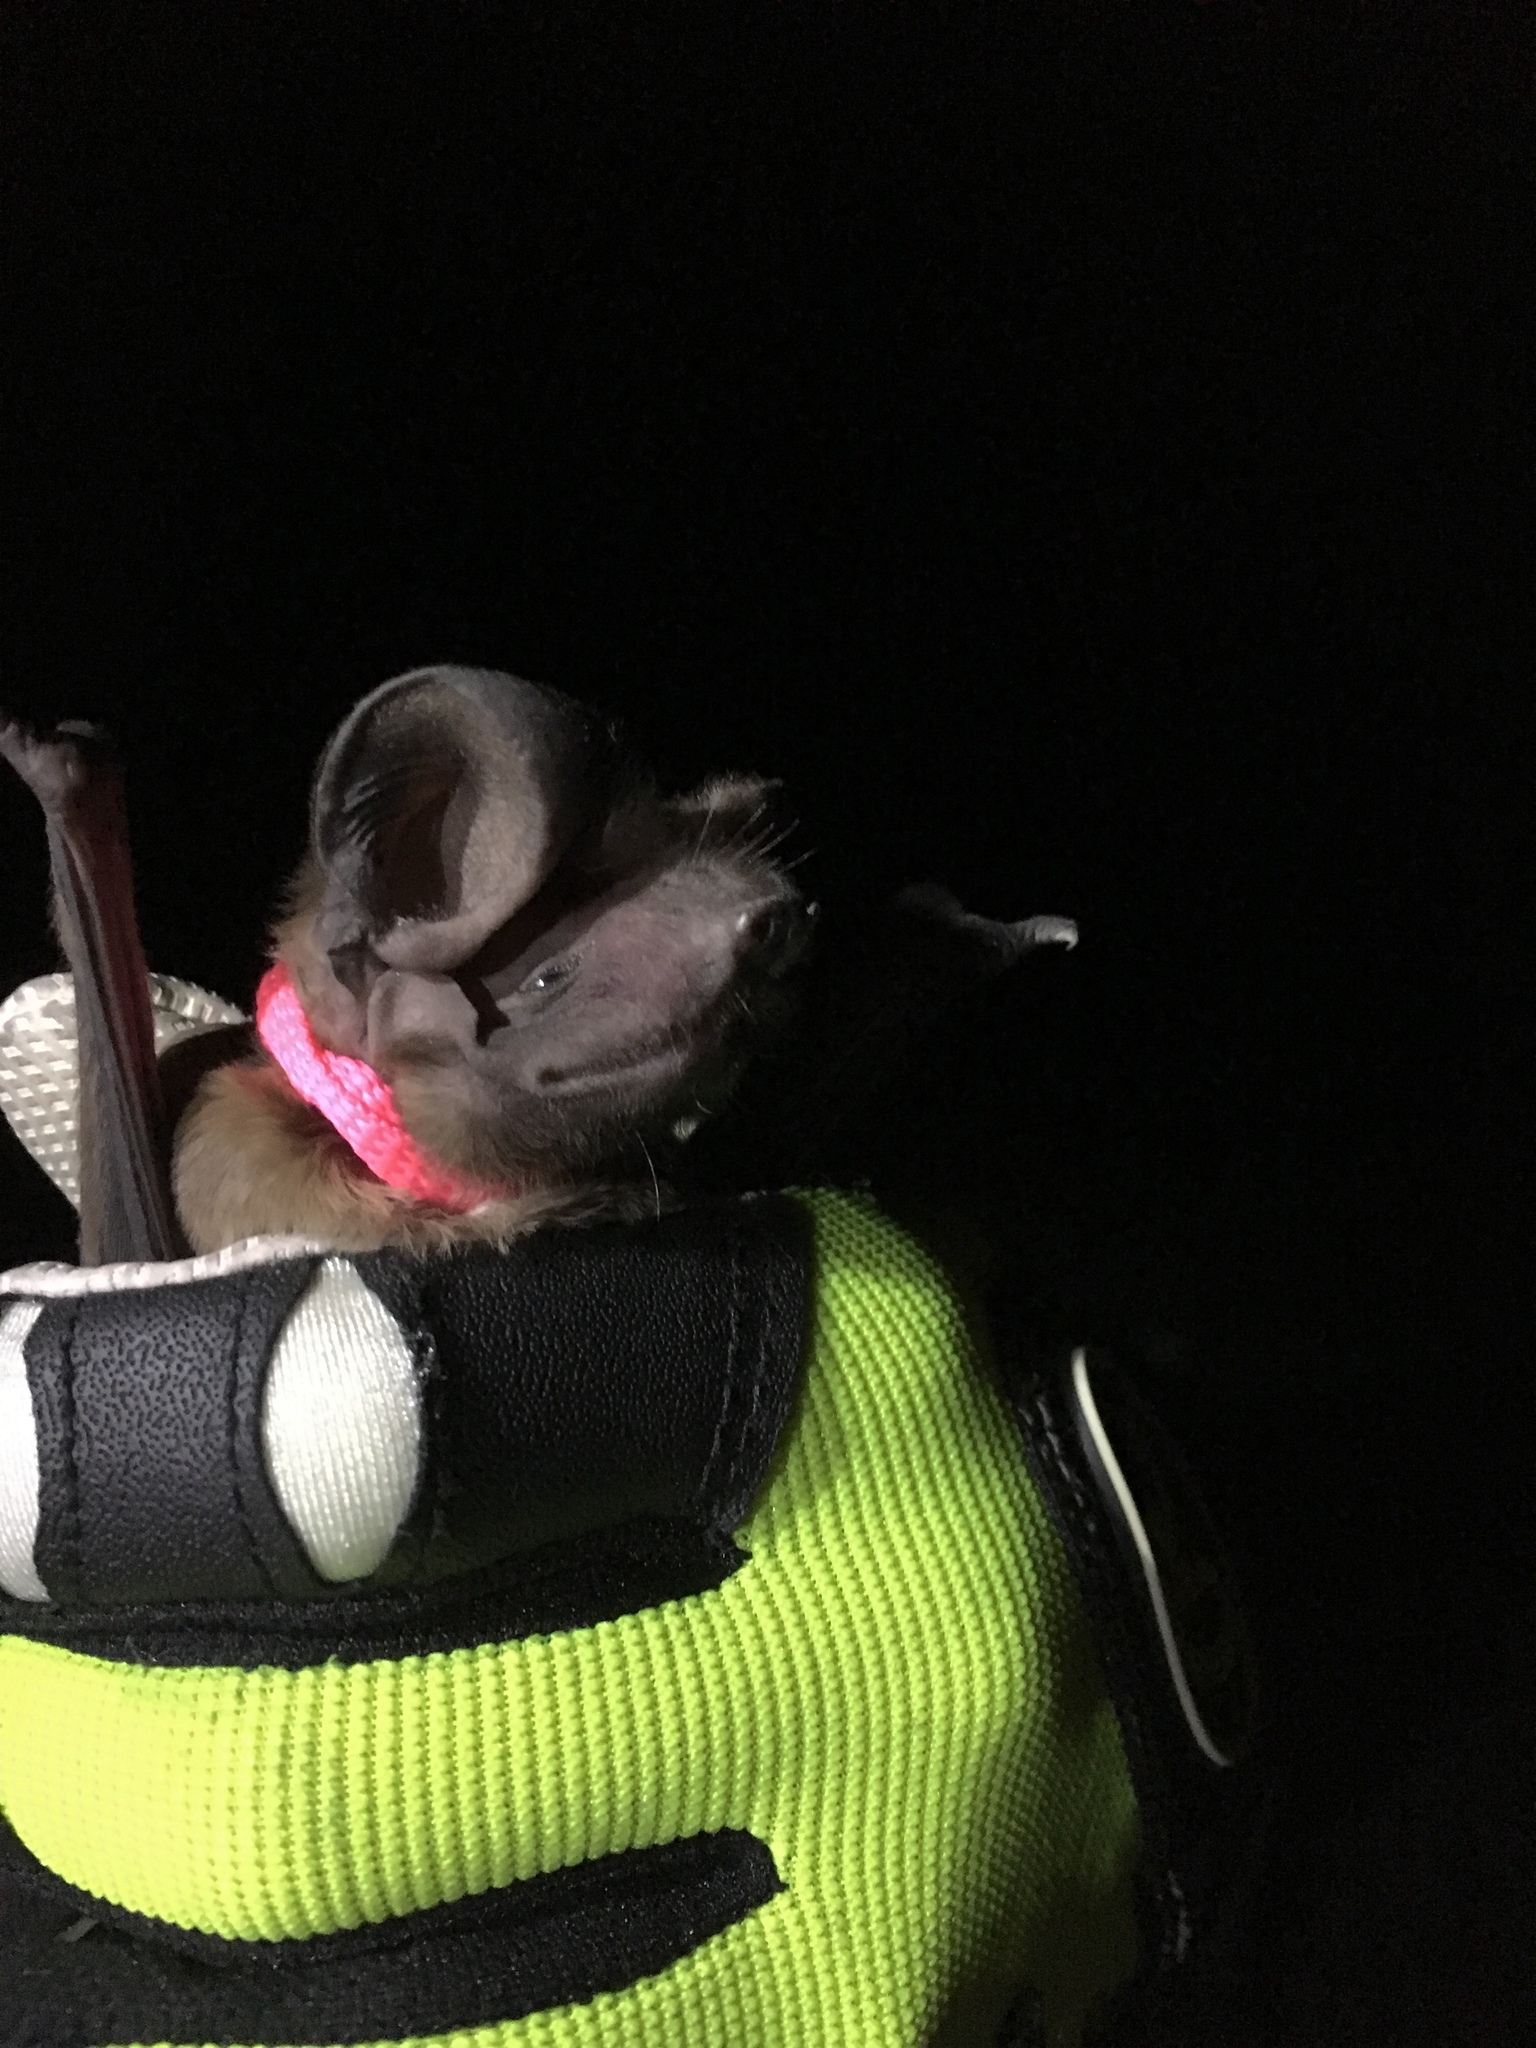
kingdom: Animalia
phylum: Chordata
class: Mammalia
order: Chiroptera
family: Molossidae
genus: Eumops
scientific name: Eumops floridanus
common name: Florida bonneted bat
